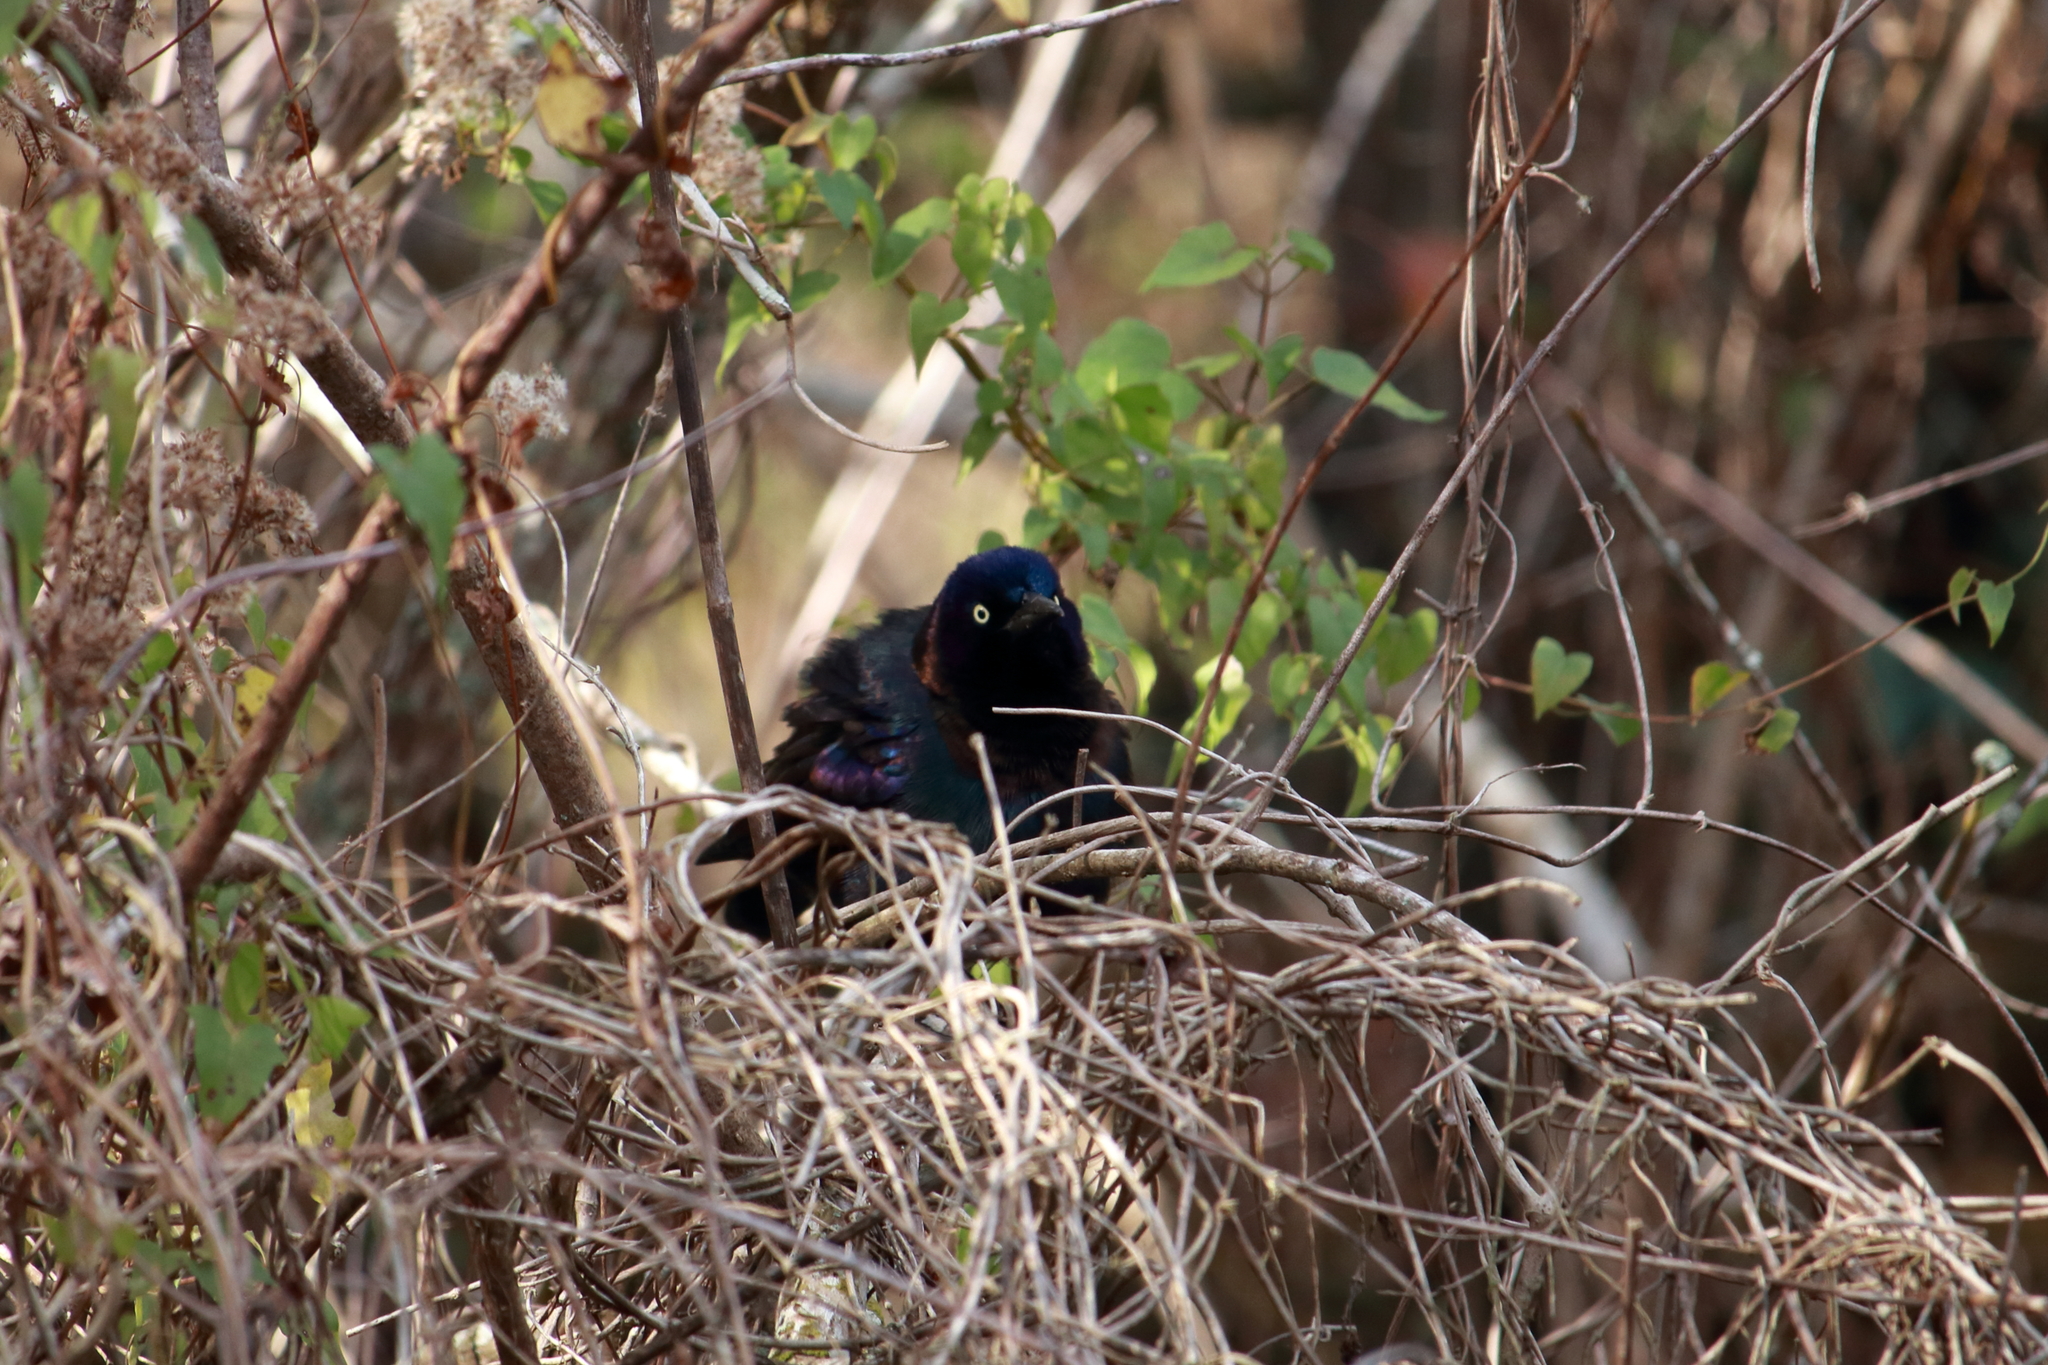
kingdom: Animalia
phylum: Chordata
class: Aves
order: Passeriformes
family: Icteridae
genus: Quiscalus
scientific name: Quiscalus quiscula
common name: Common grackle
